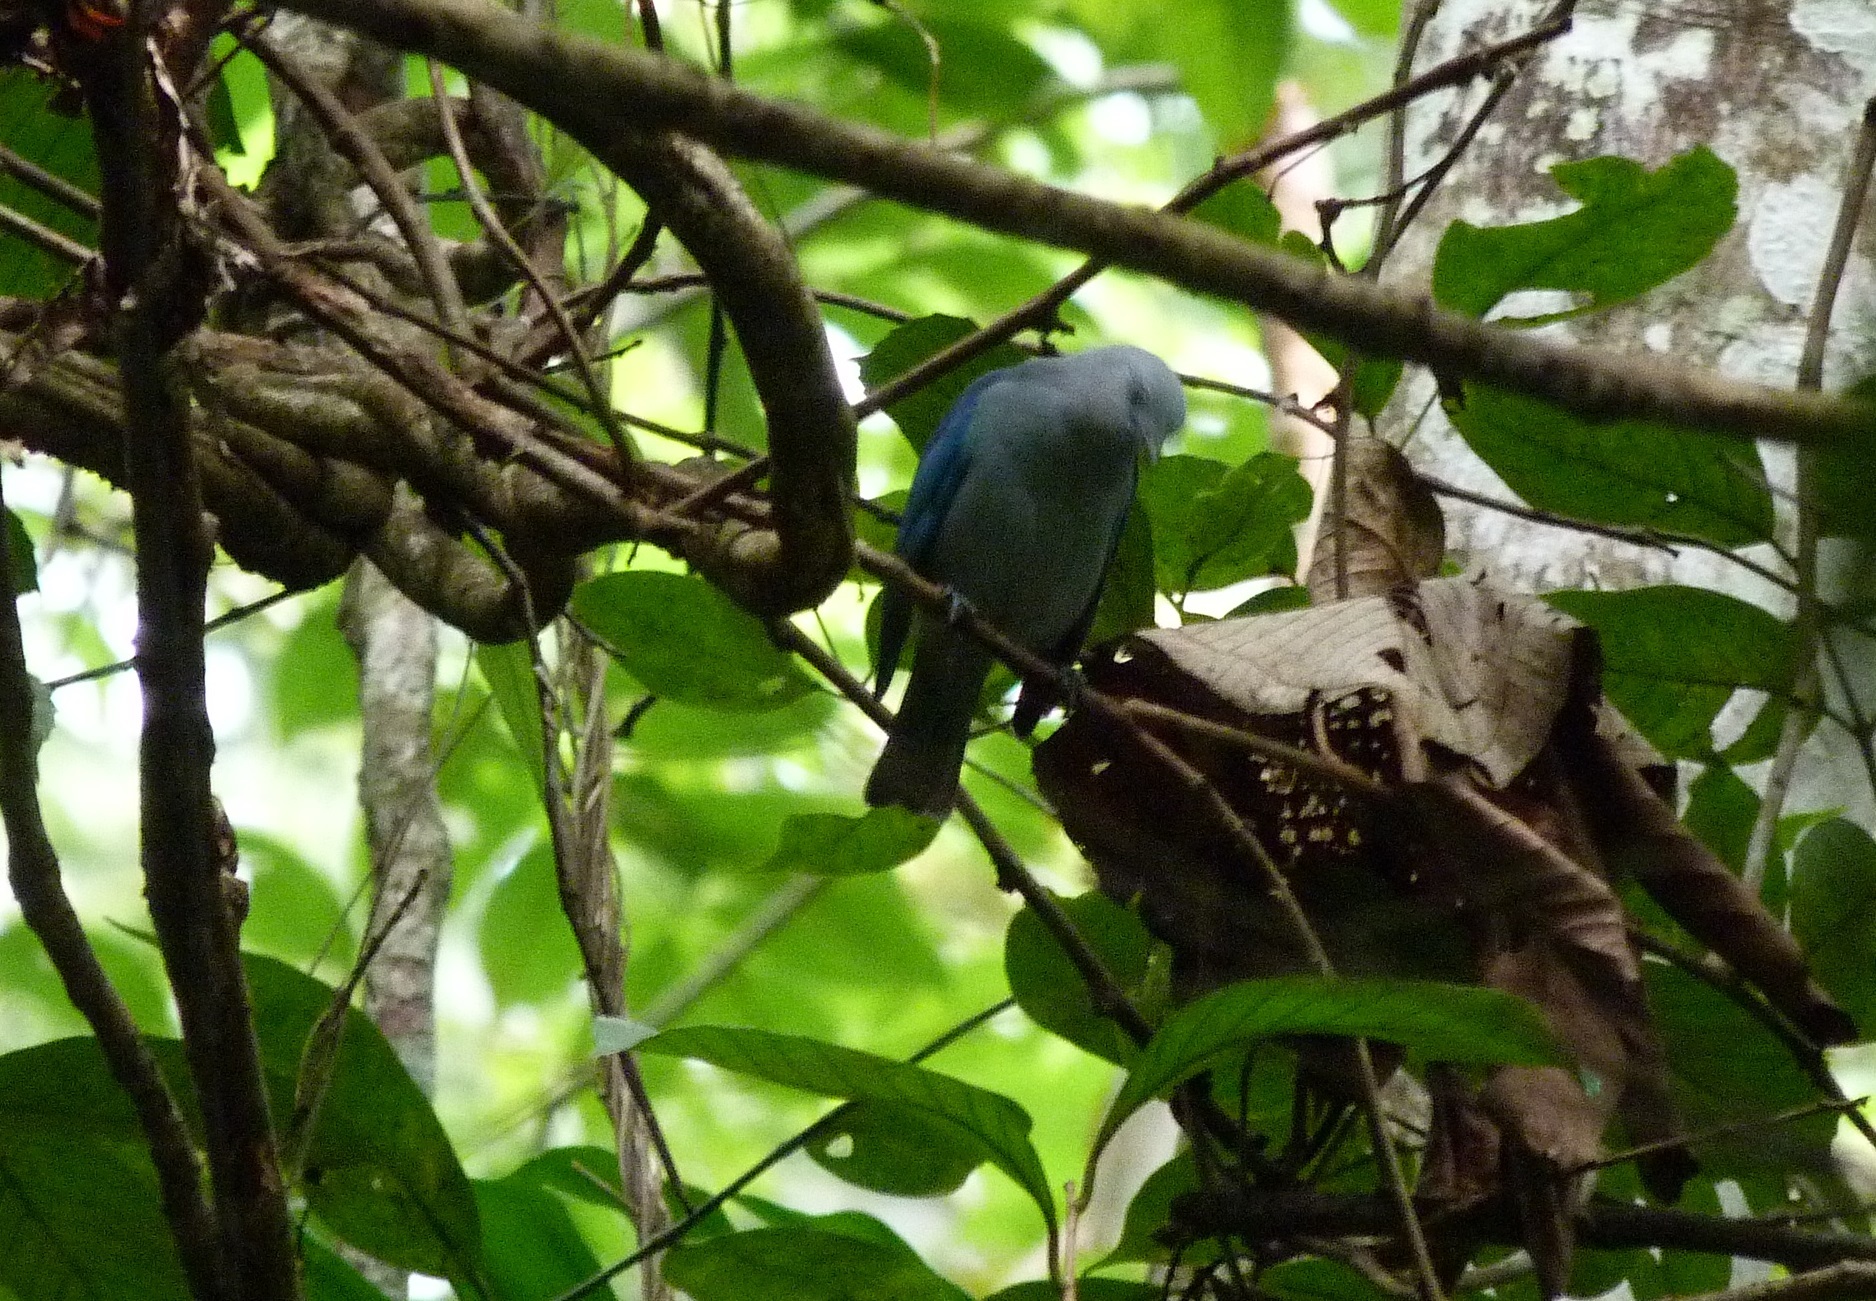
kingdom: Animalia
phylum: Chordata
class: Aves
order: Passeriformes
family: Thraupidae
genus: Thraupis
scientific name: Thraupis episcopus
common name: Blue-grey tanager
